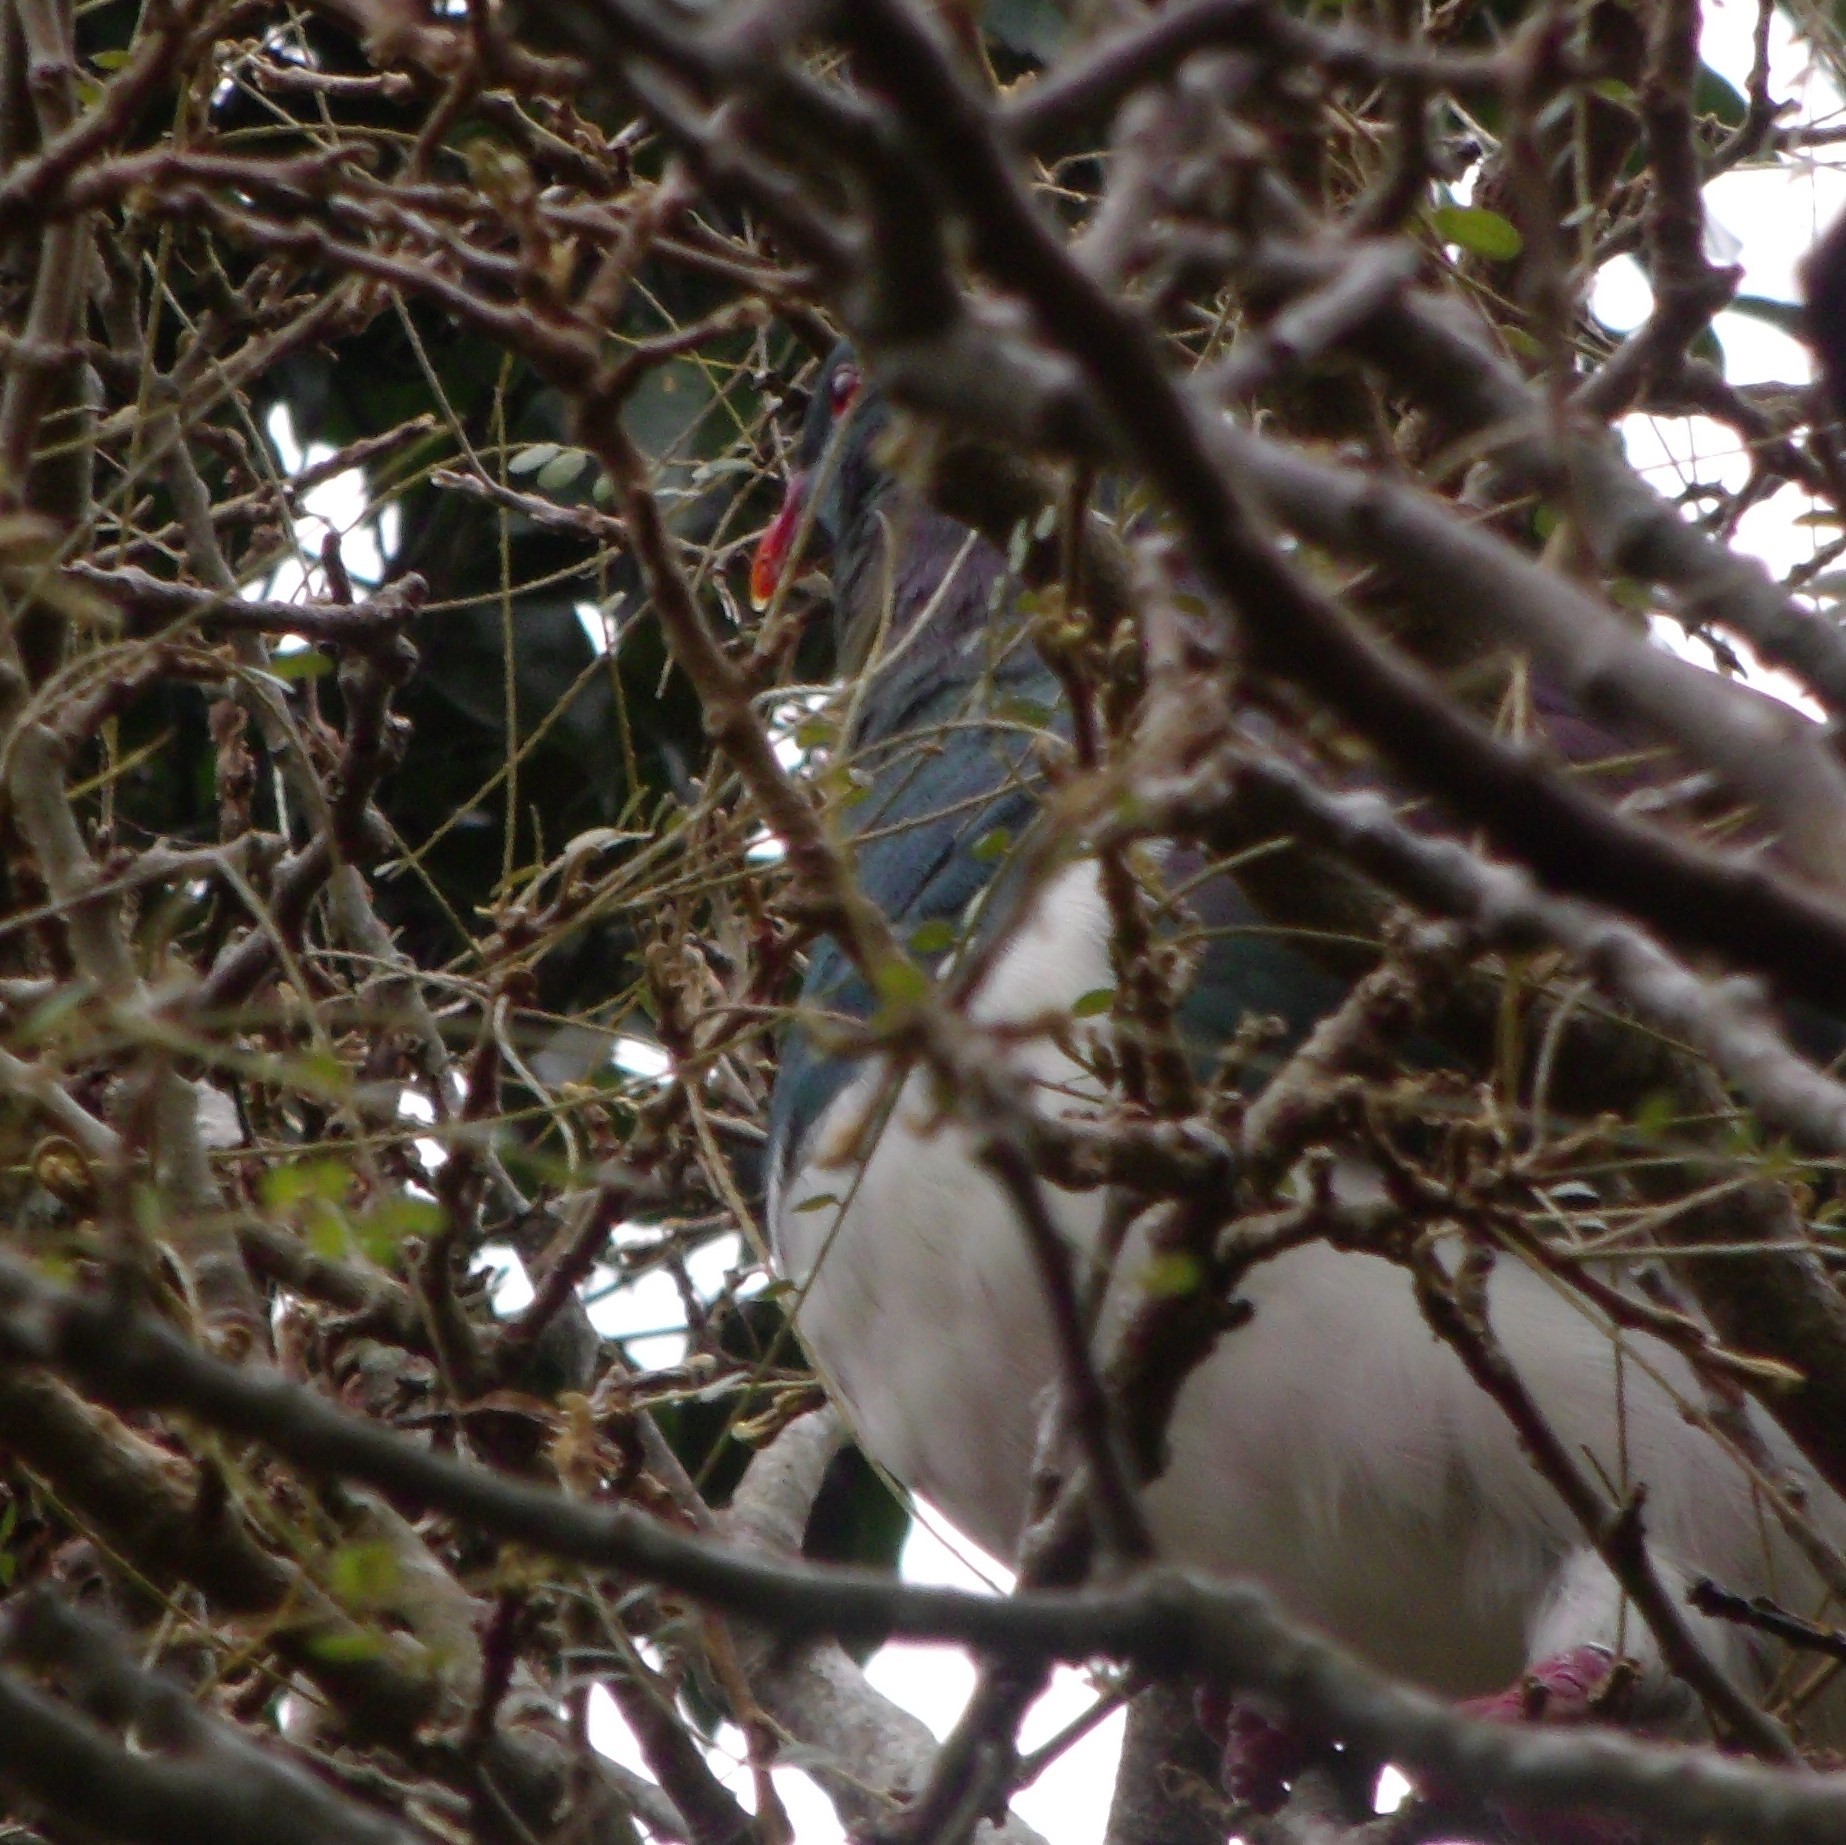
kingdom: Animalia
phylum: Chordata
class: Aves
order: Columbiformes
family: Columbidae
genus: Hemiphaga
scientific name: Hemiphaga novaeseelandiae
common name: New zealand pigeon
